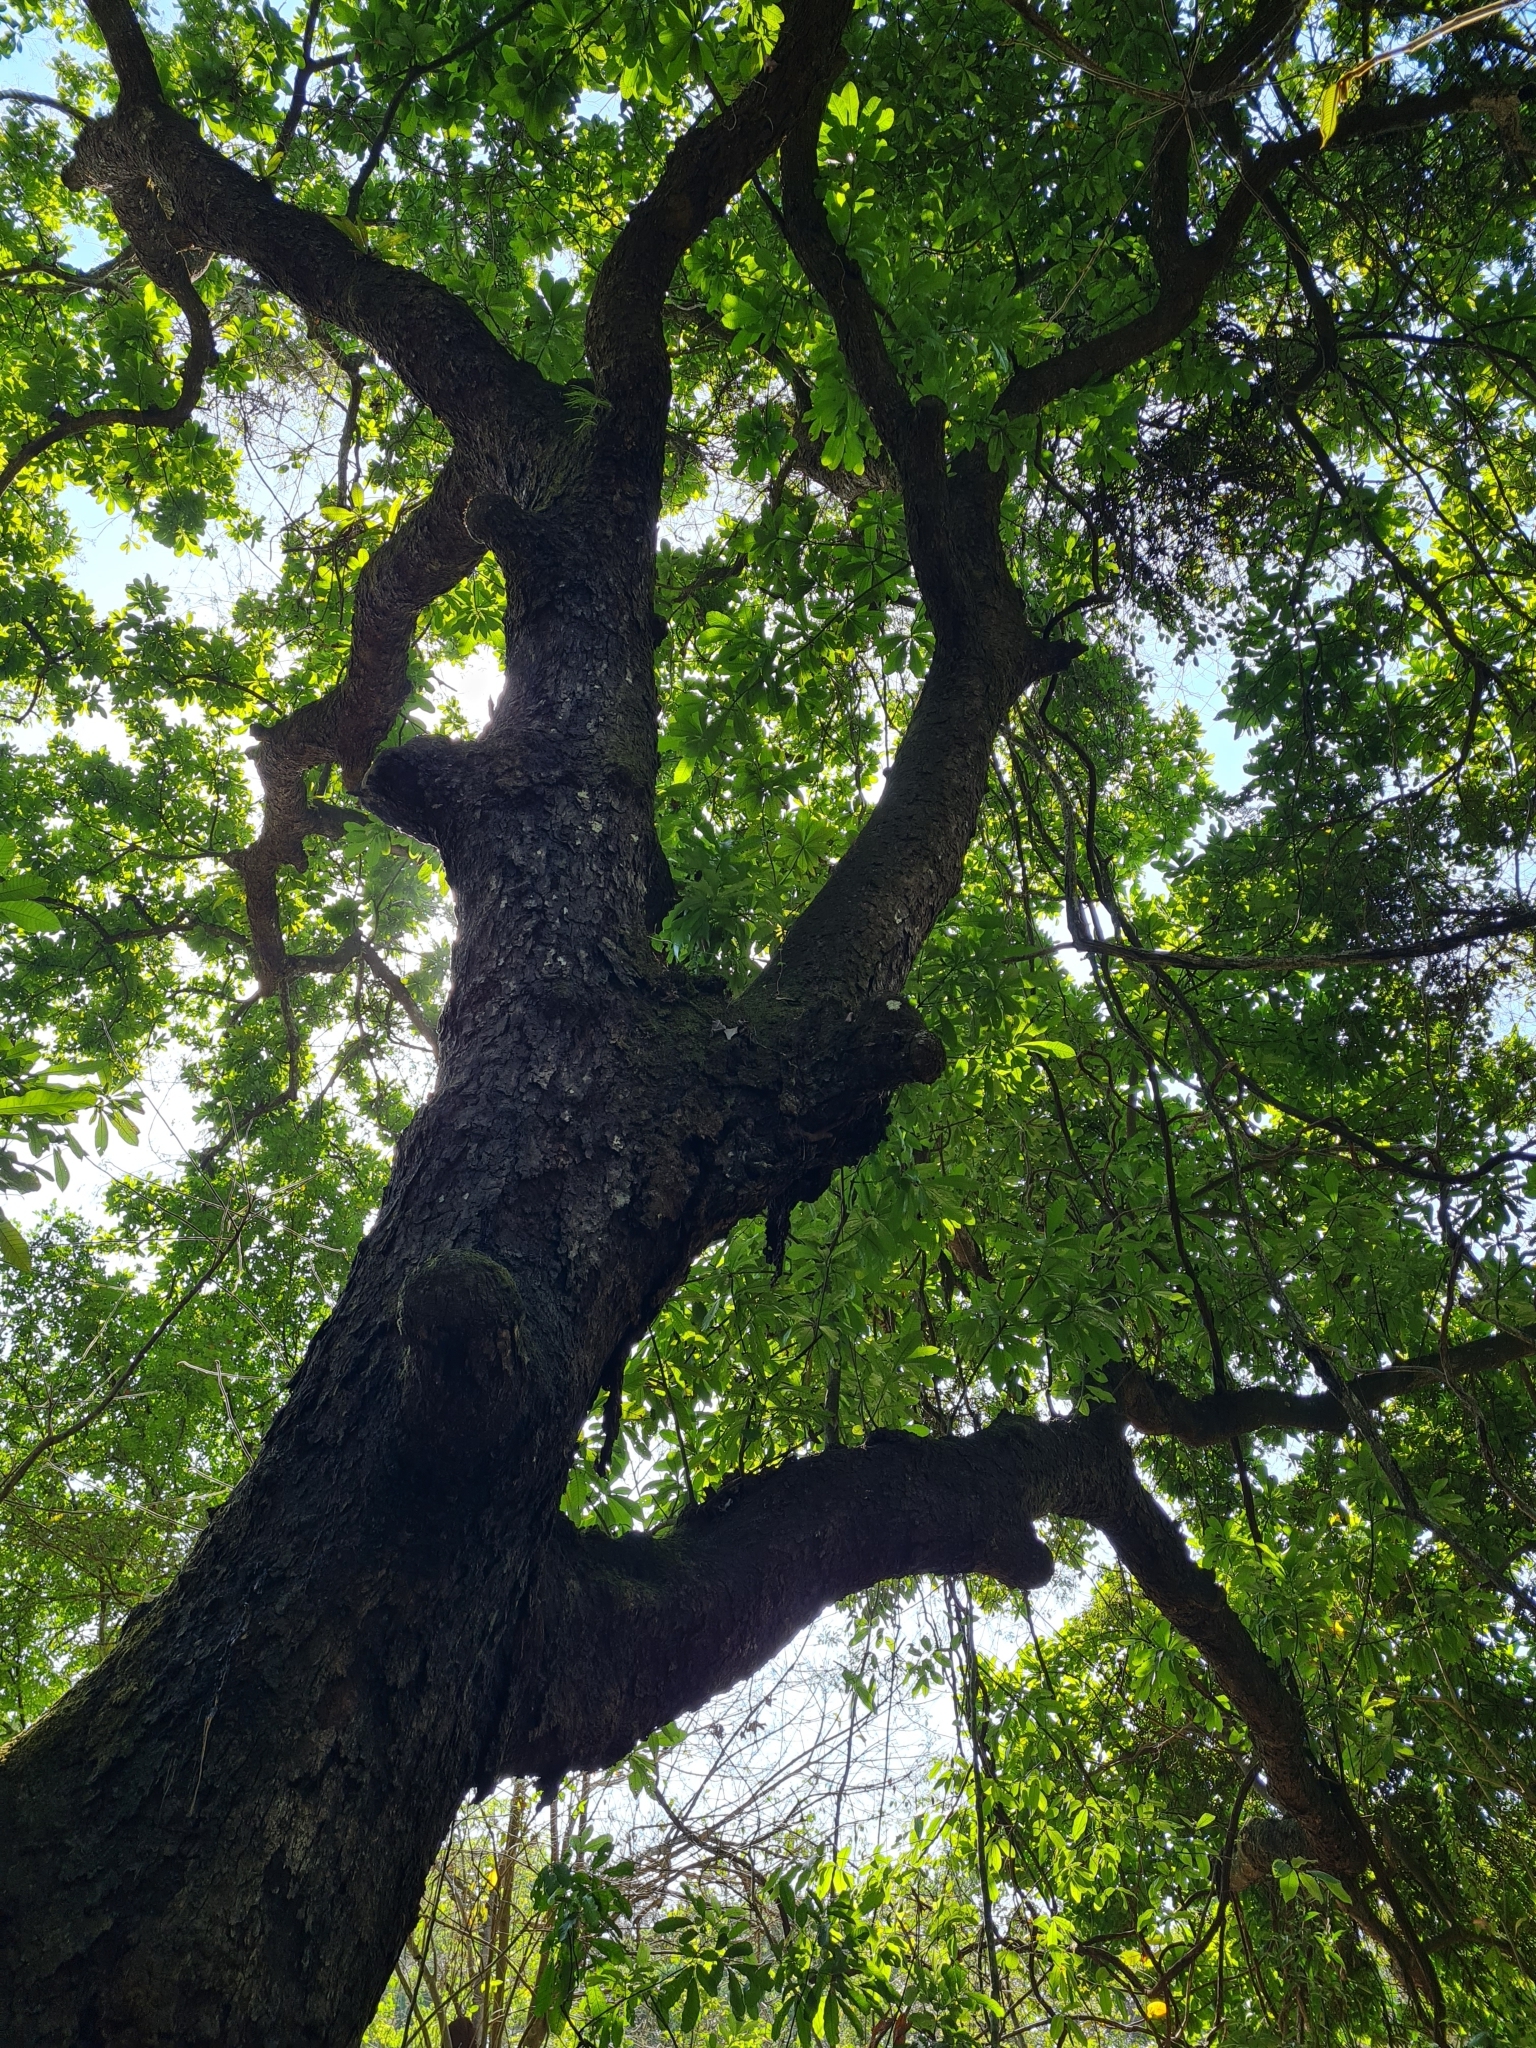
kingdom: Plantae
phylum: Tracheophyta
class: Magnoliopsida
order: Sapindales
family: Anacardiaceae
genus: Anacardium
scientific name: Anacardium excelsum
